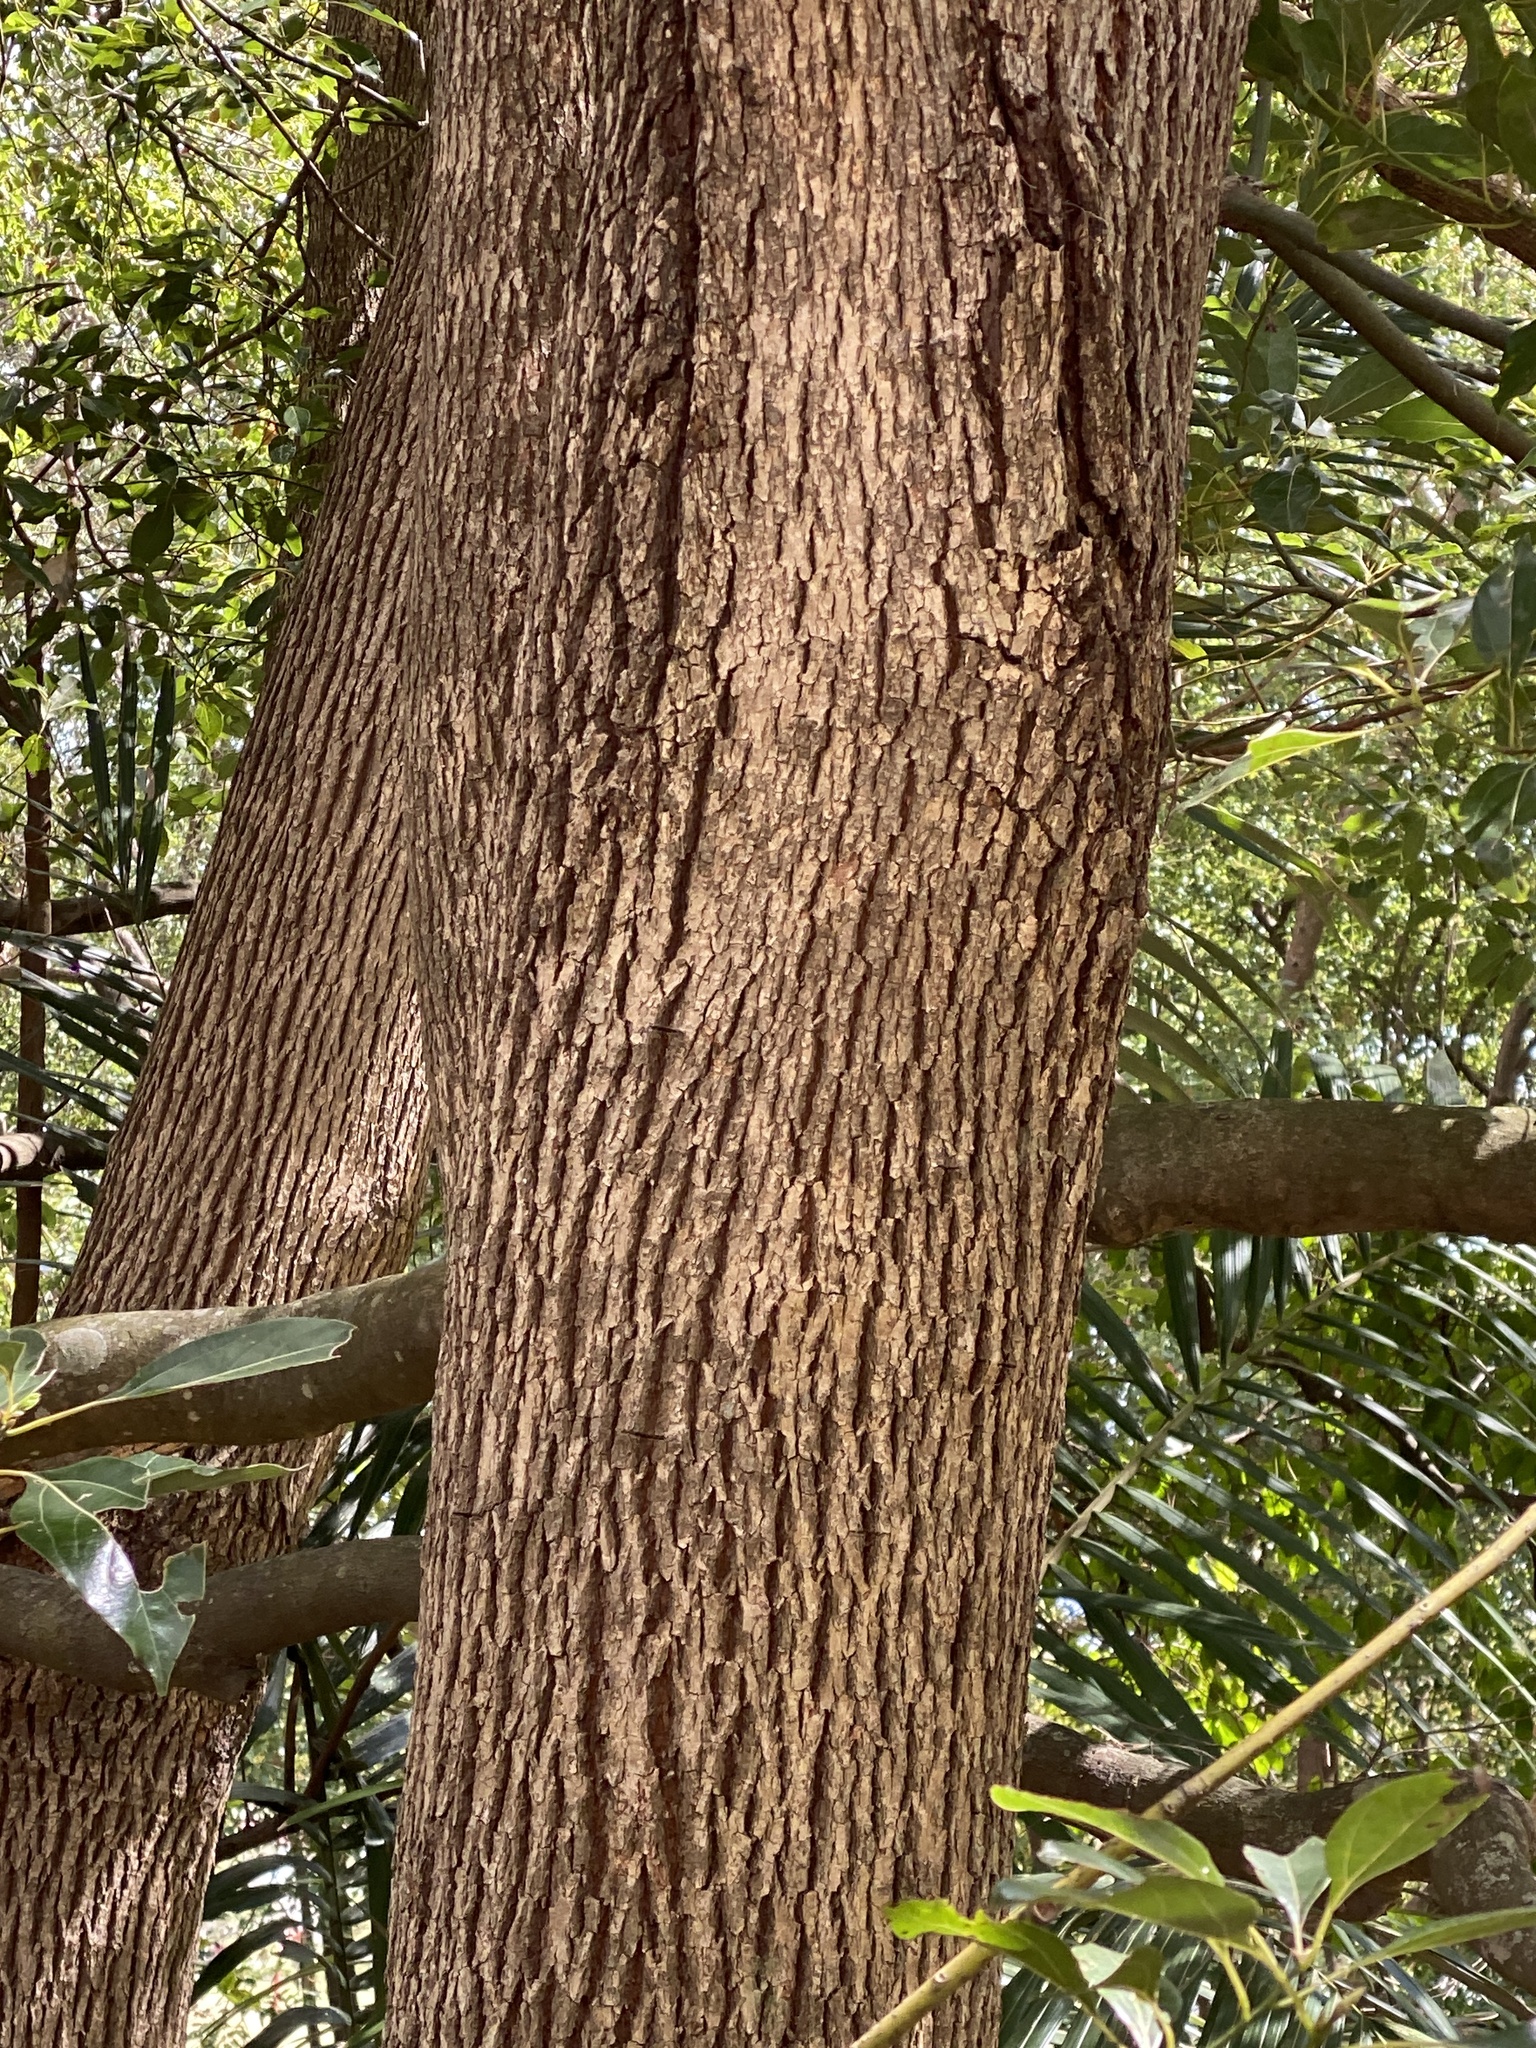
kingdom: Plantae
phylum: Tracheophyta
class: Magnoliopsida
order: Laurales
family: Lauraceae
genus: Cinnamomum
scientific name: Cinnamomum camphora
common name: Camphortree
